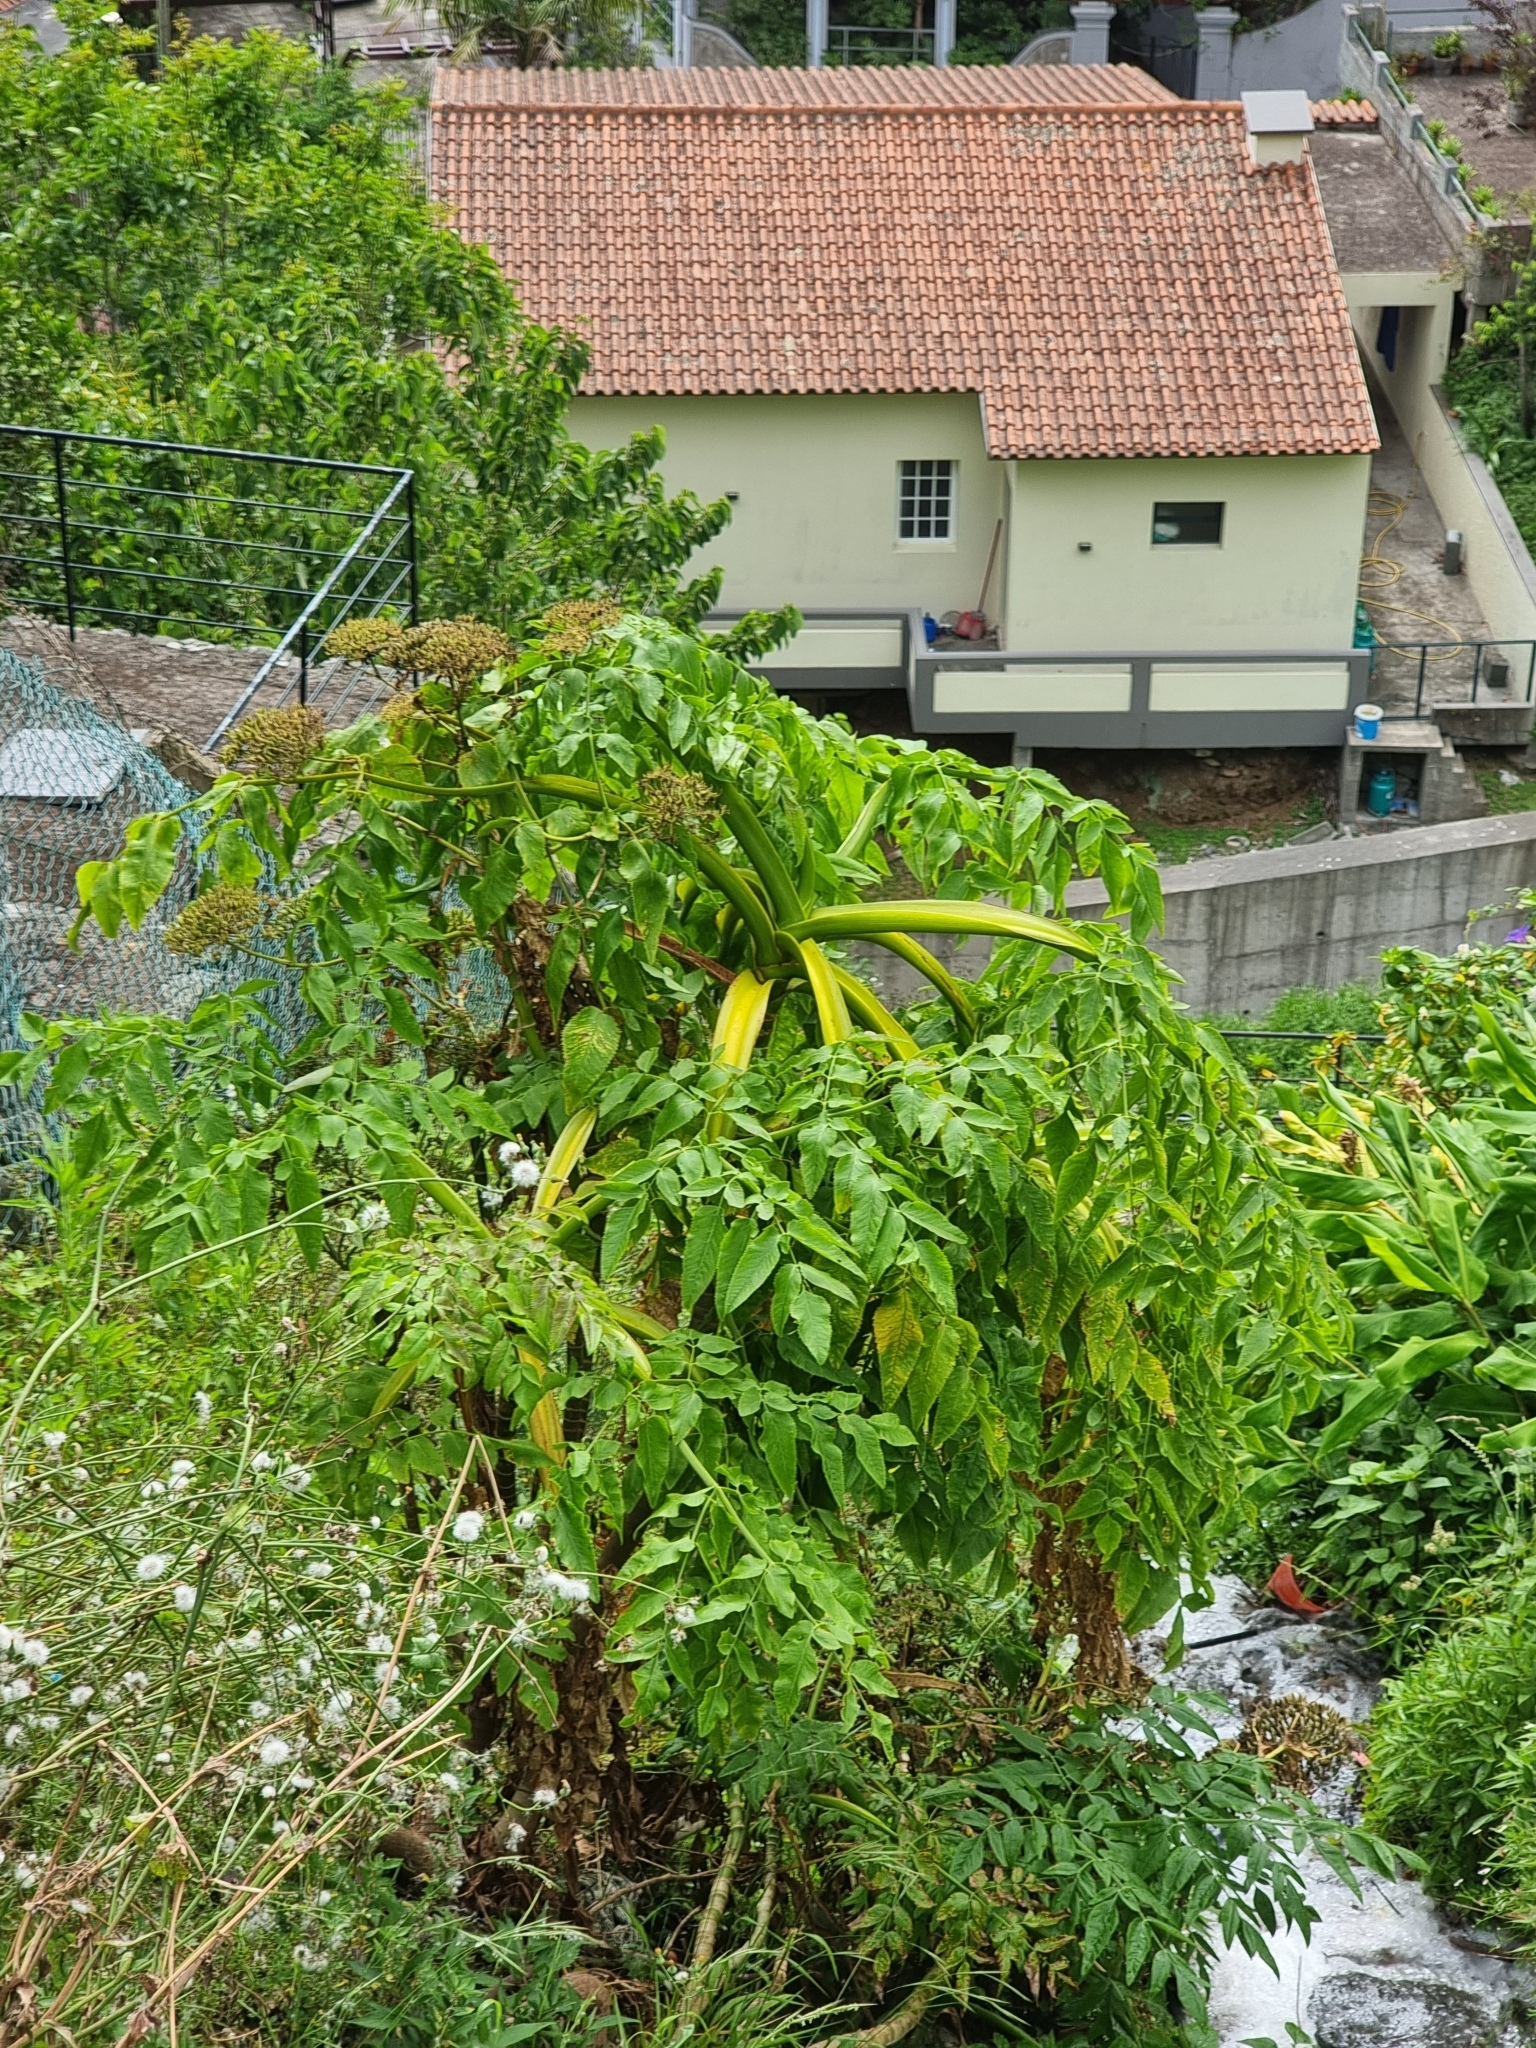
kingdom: Plantae
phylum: Tracheophyta
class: Magnoliopsida
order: Apiales
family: Apiaceae
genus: Daucus
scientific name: Daucus decipiens
